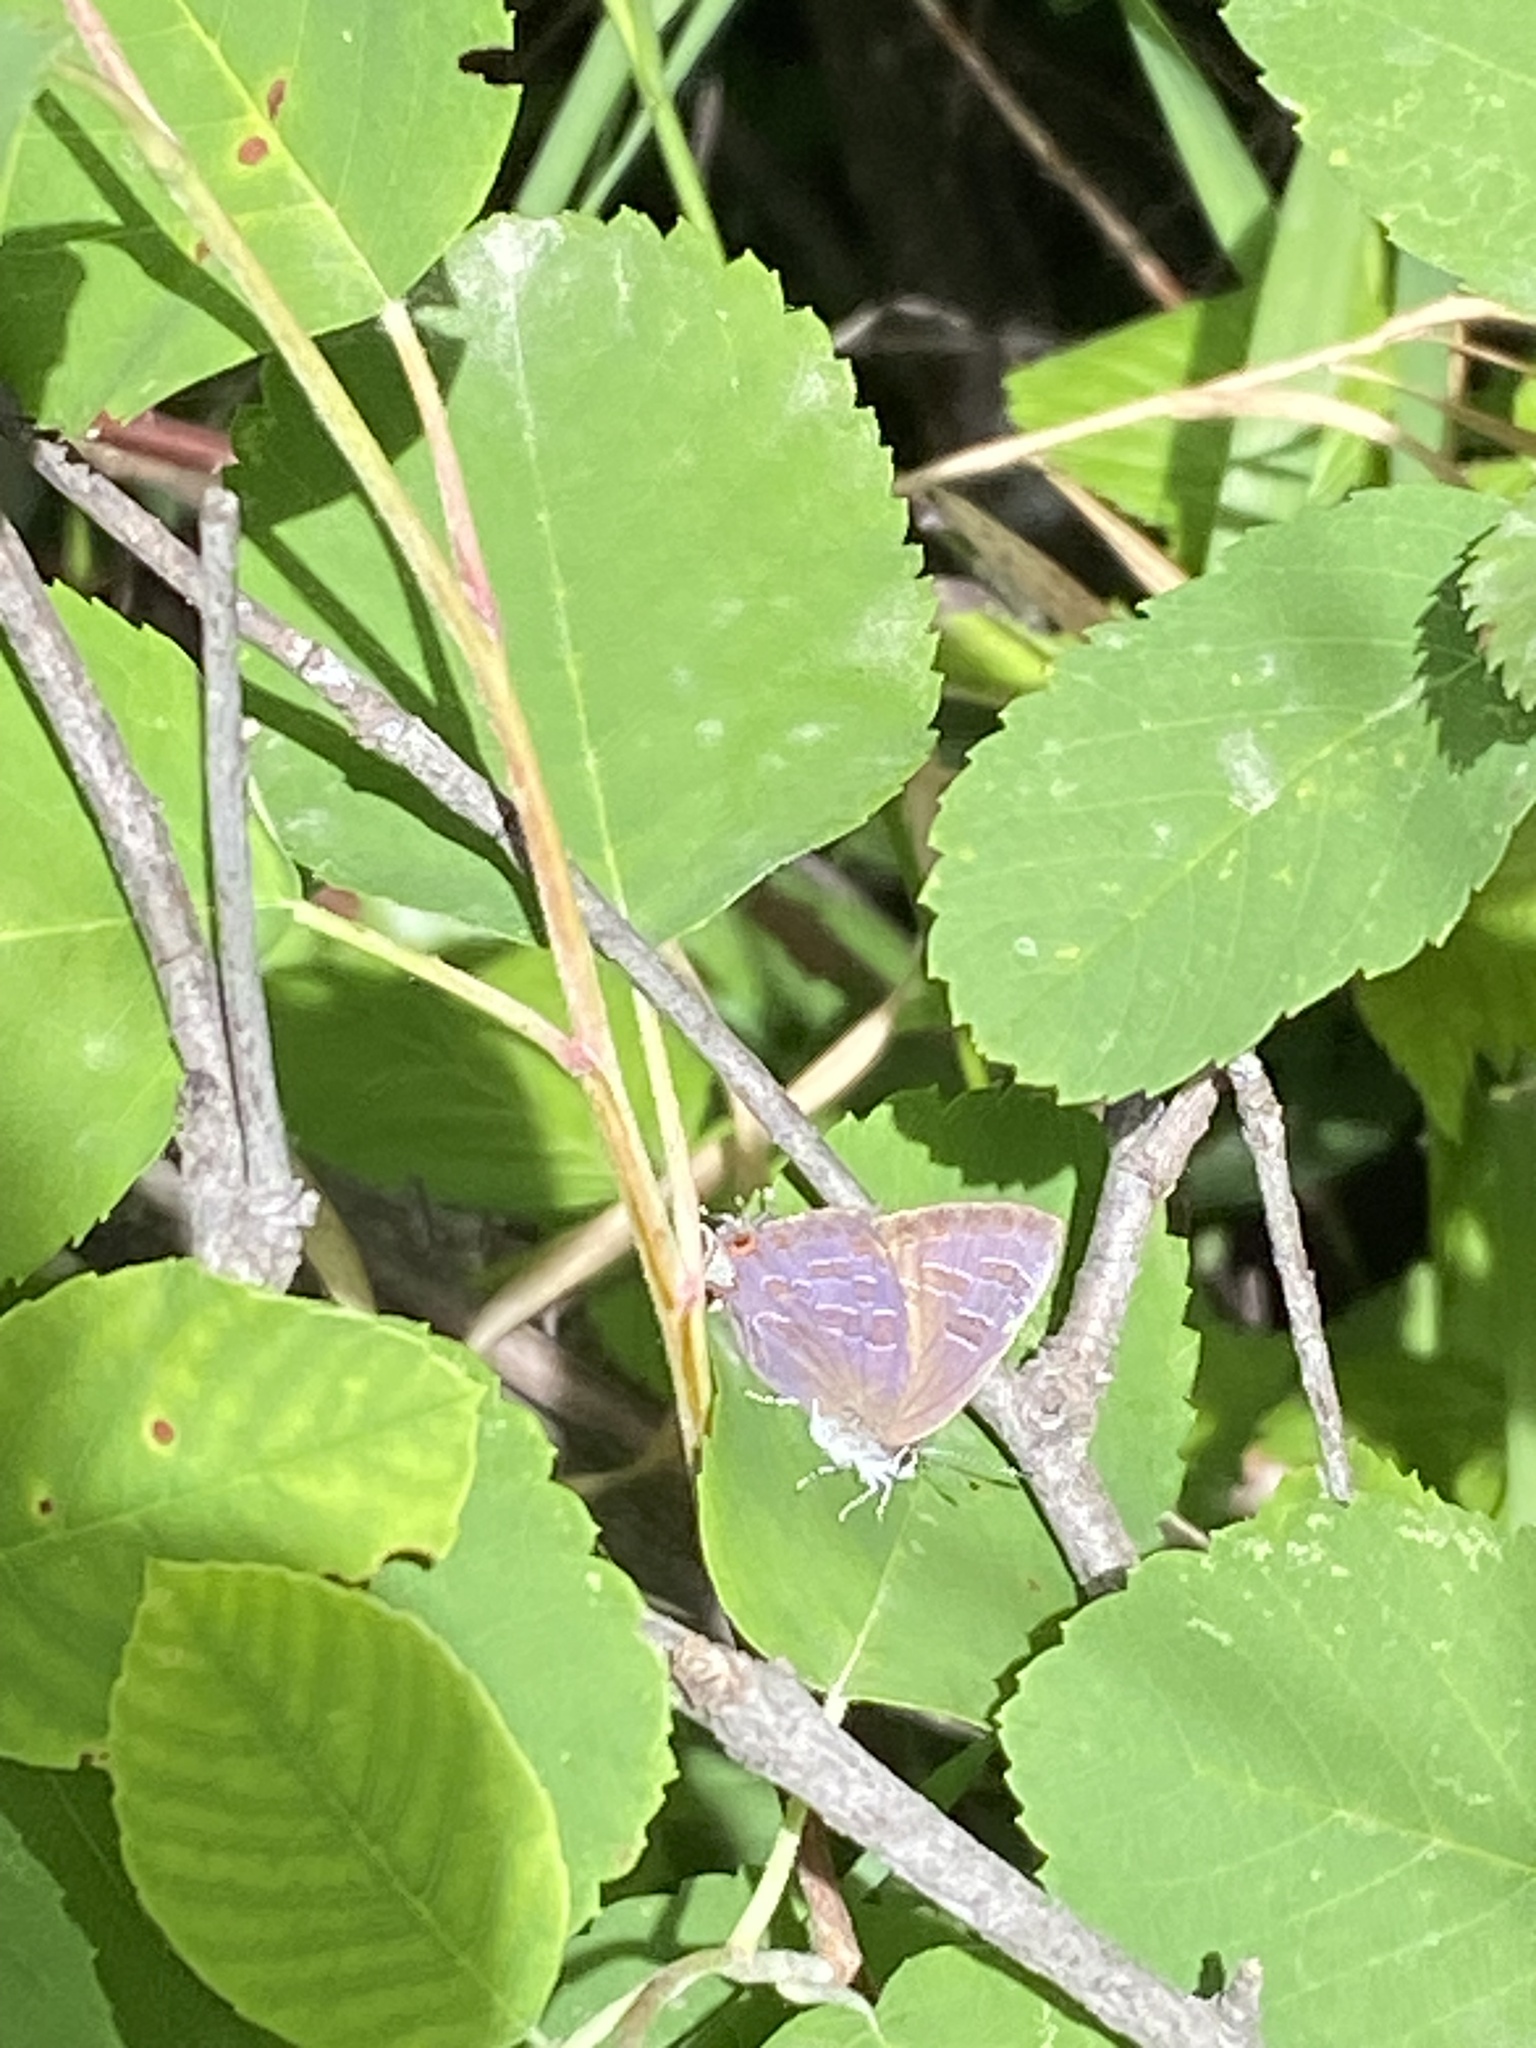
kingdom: Animalia
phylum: Arthropoda
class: Insecta
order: Lepidoptera
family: Lycaenidae
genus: Satyrium
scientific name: Satyrium liparops
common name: Striped hairstreak
